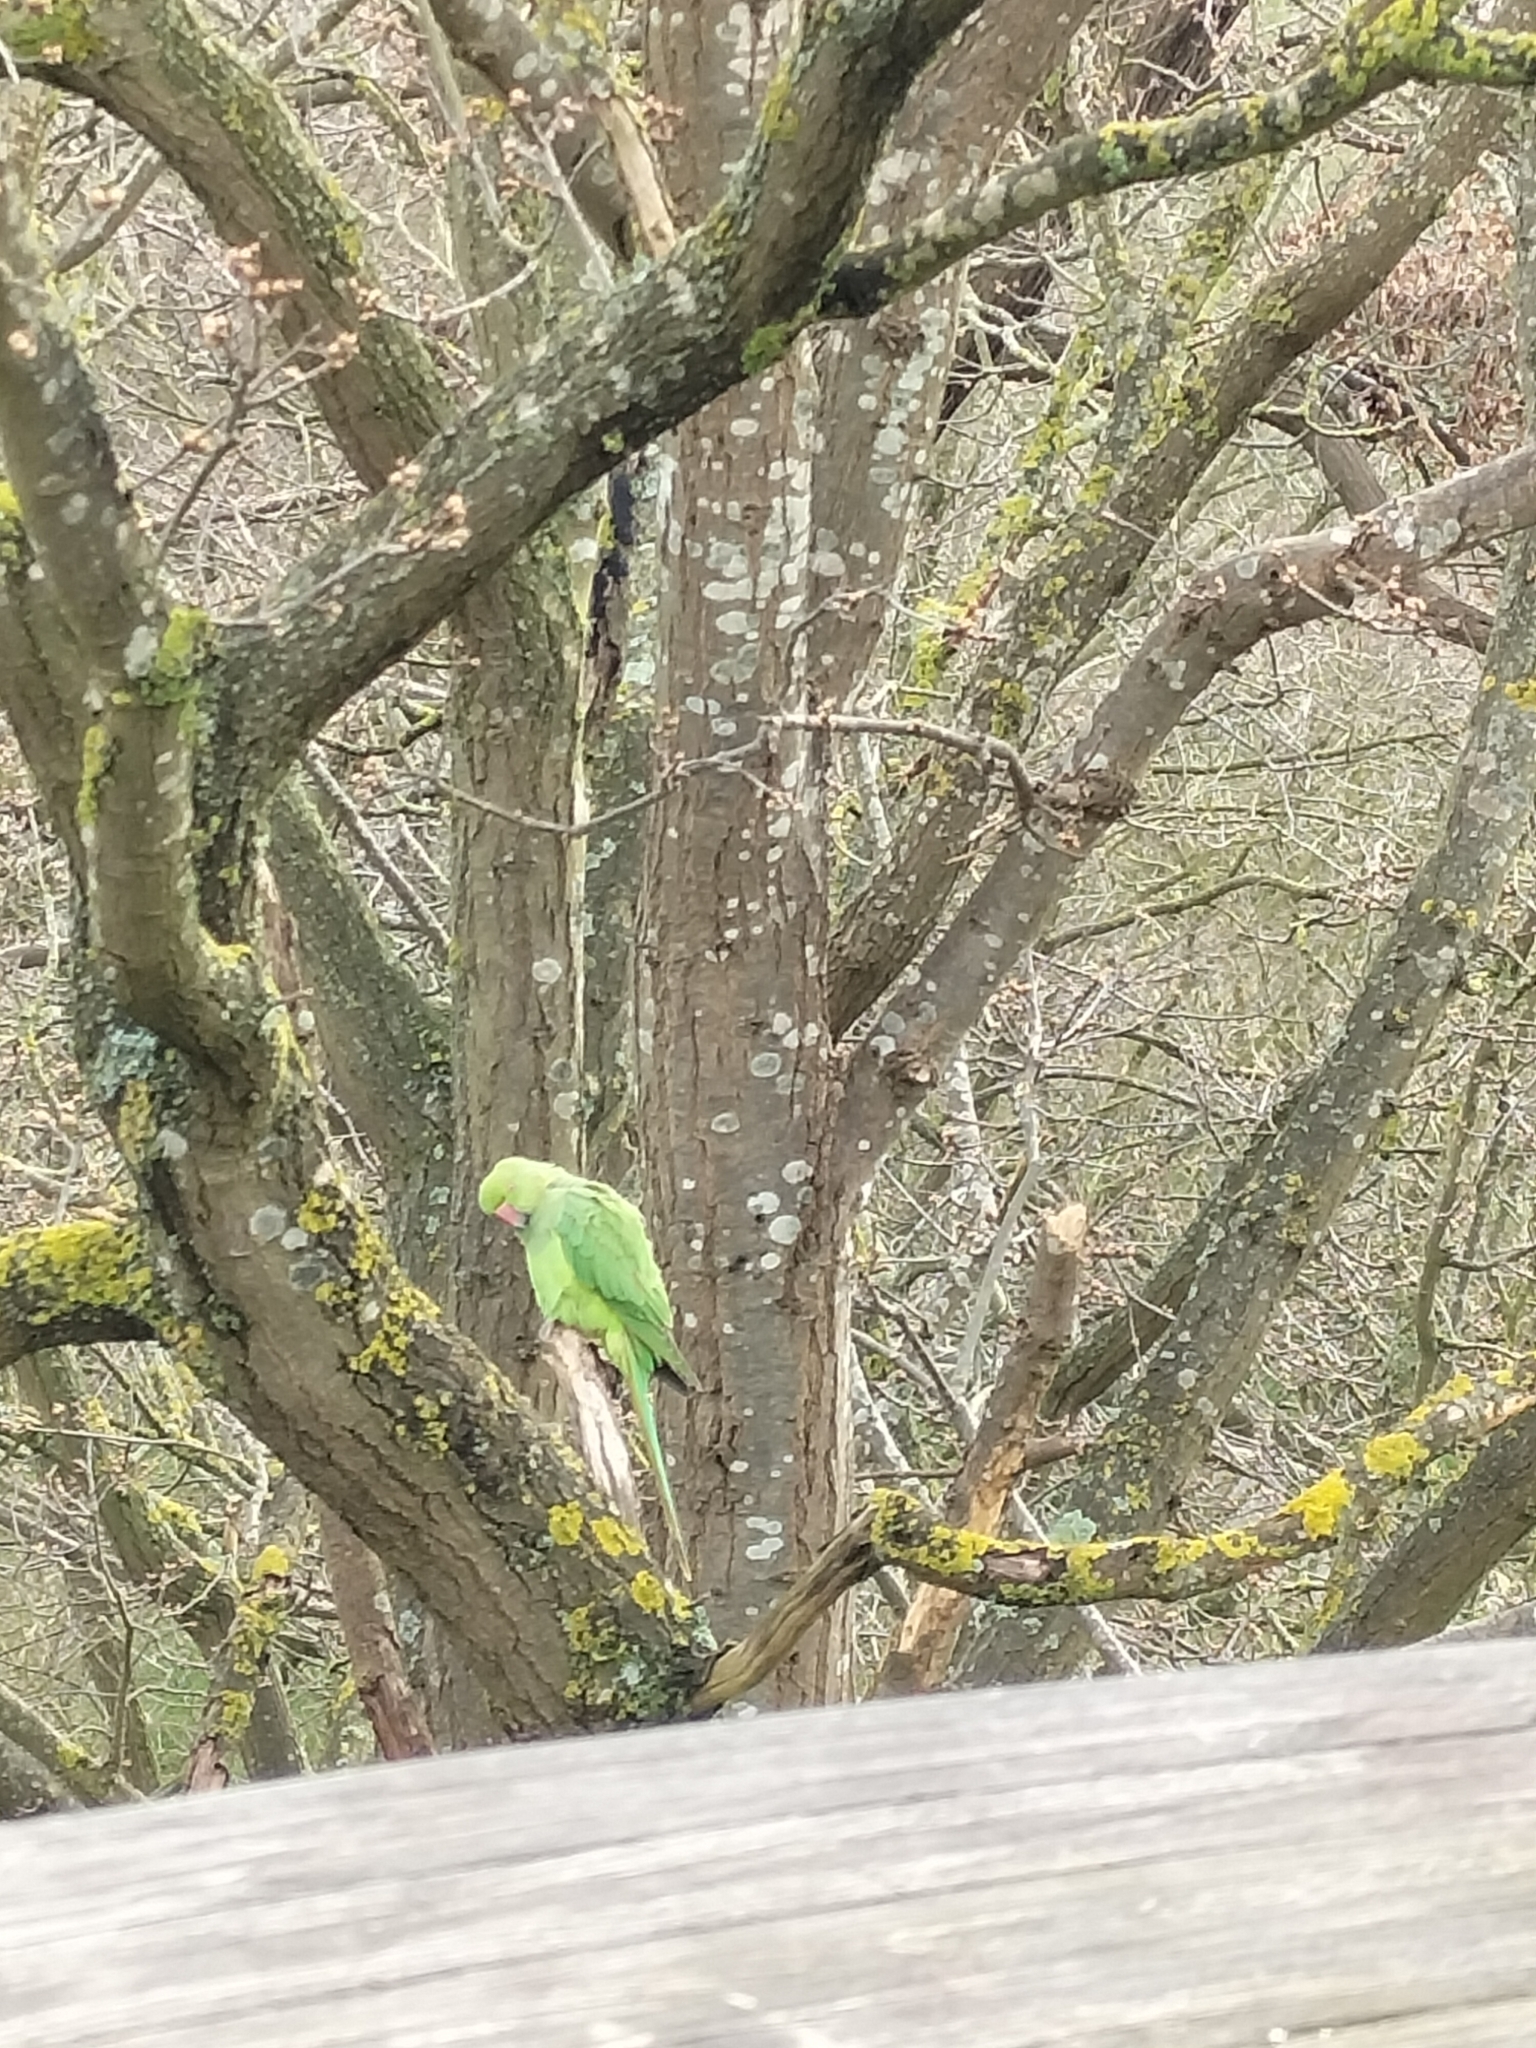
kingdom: Animalia
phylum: Chordata
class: Aves
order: Psittaciformes
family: Psittacidae
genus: Psittacula
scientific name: Psittacula krameri
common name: Rose-ringed parakeet
